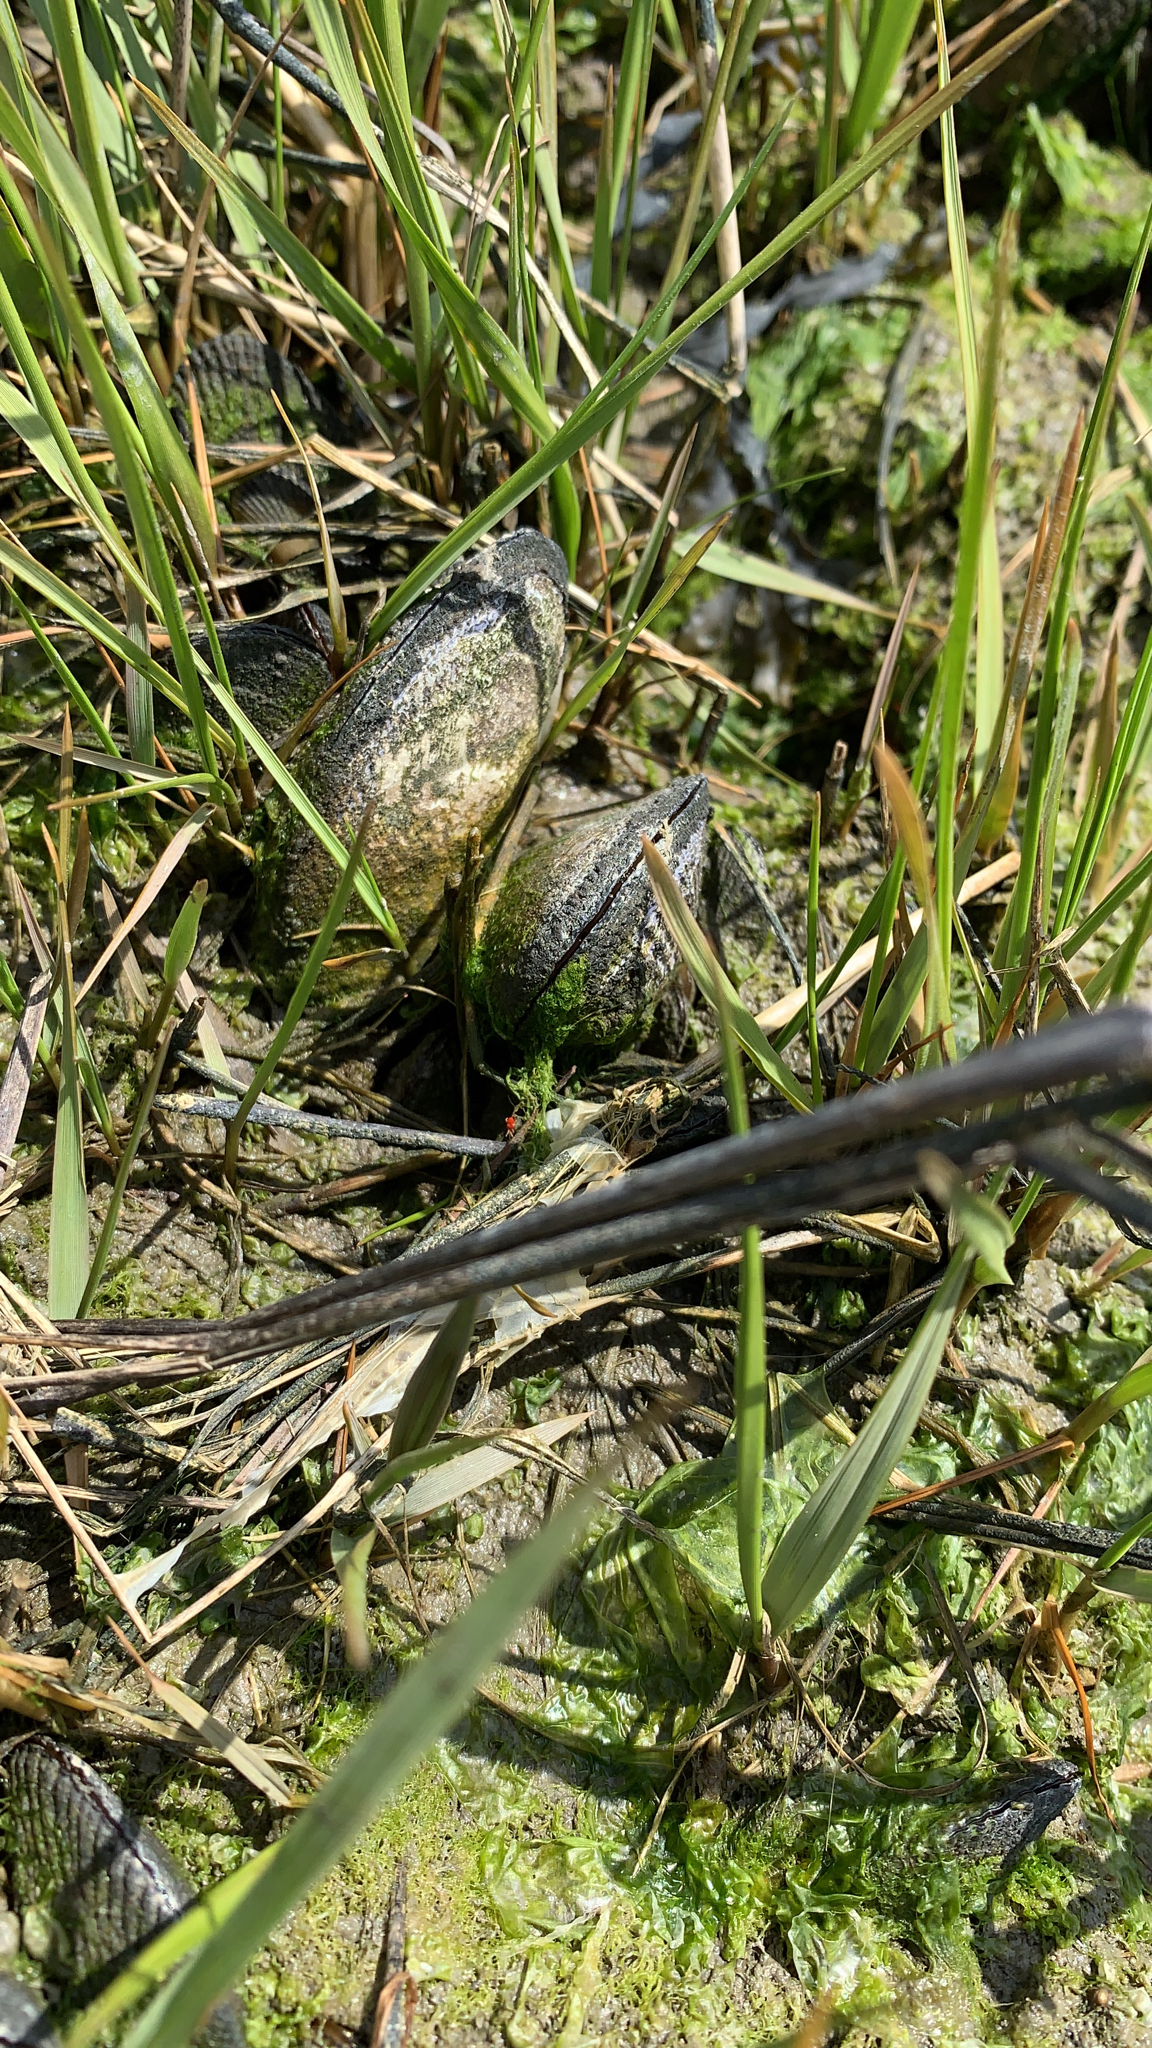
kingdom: Animalia
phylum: Mollusca
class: Bivalvia
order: Mytilida
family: Mytilidae
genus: Geukensia
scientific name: Geukensia demissa
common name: Ribbed mussel
